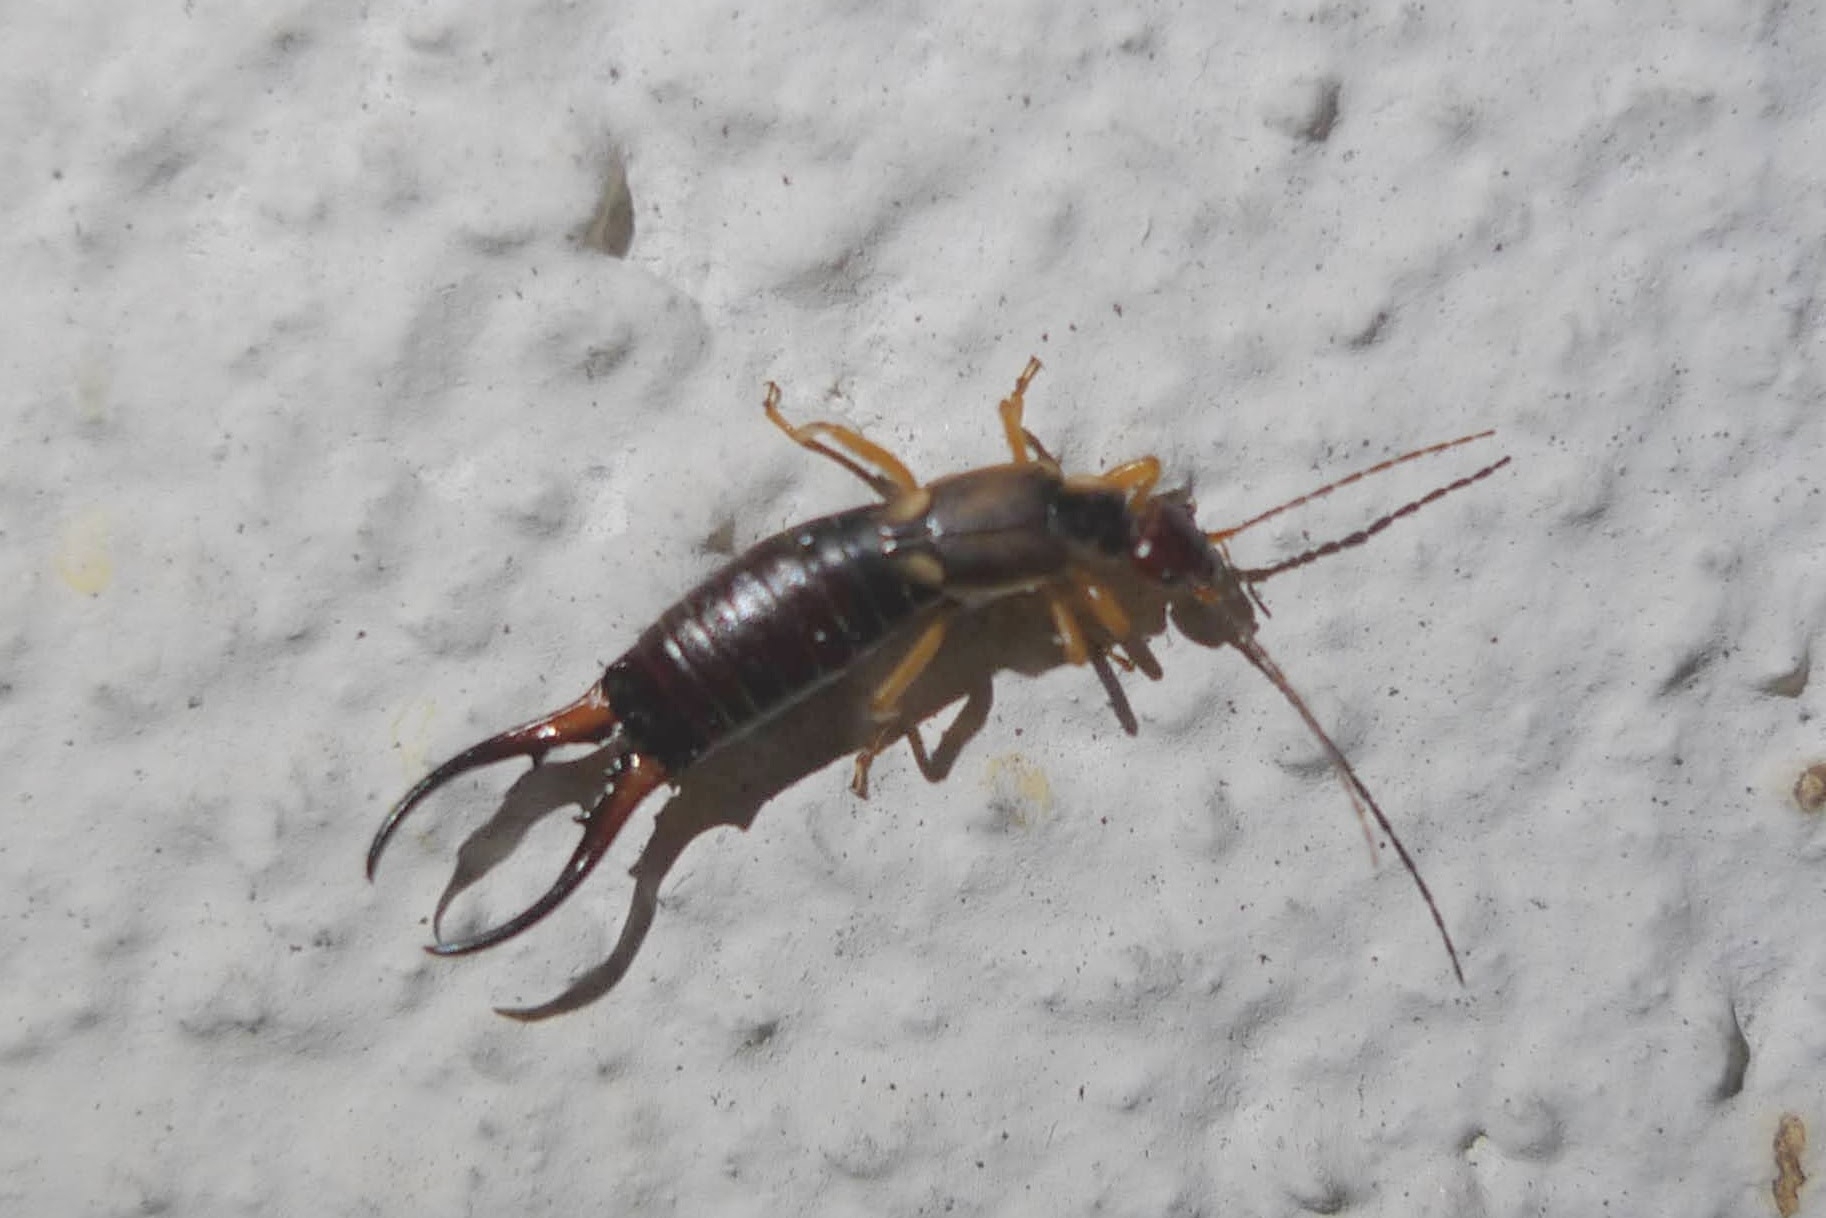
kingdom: Animalia
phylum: Arthropoda
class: Insecta
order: Dermaptera
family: Forficulidae
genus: Forficula
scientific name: Forficula
